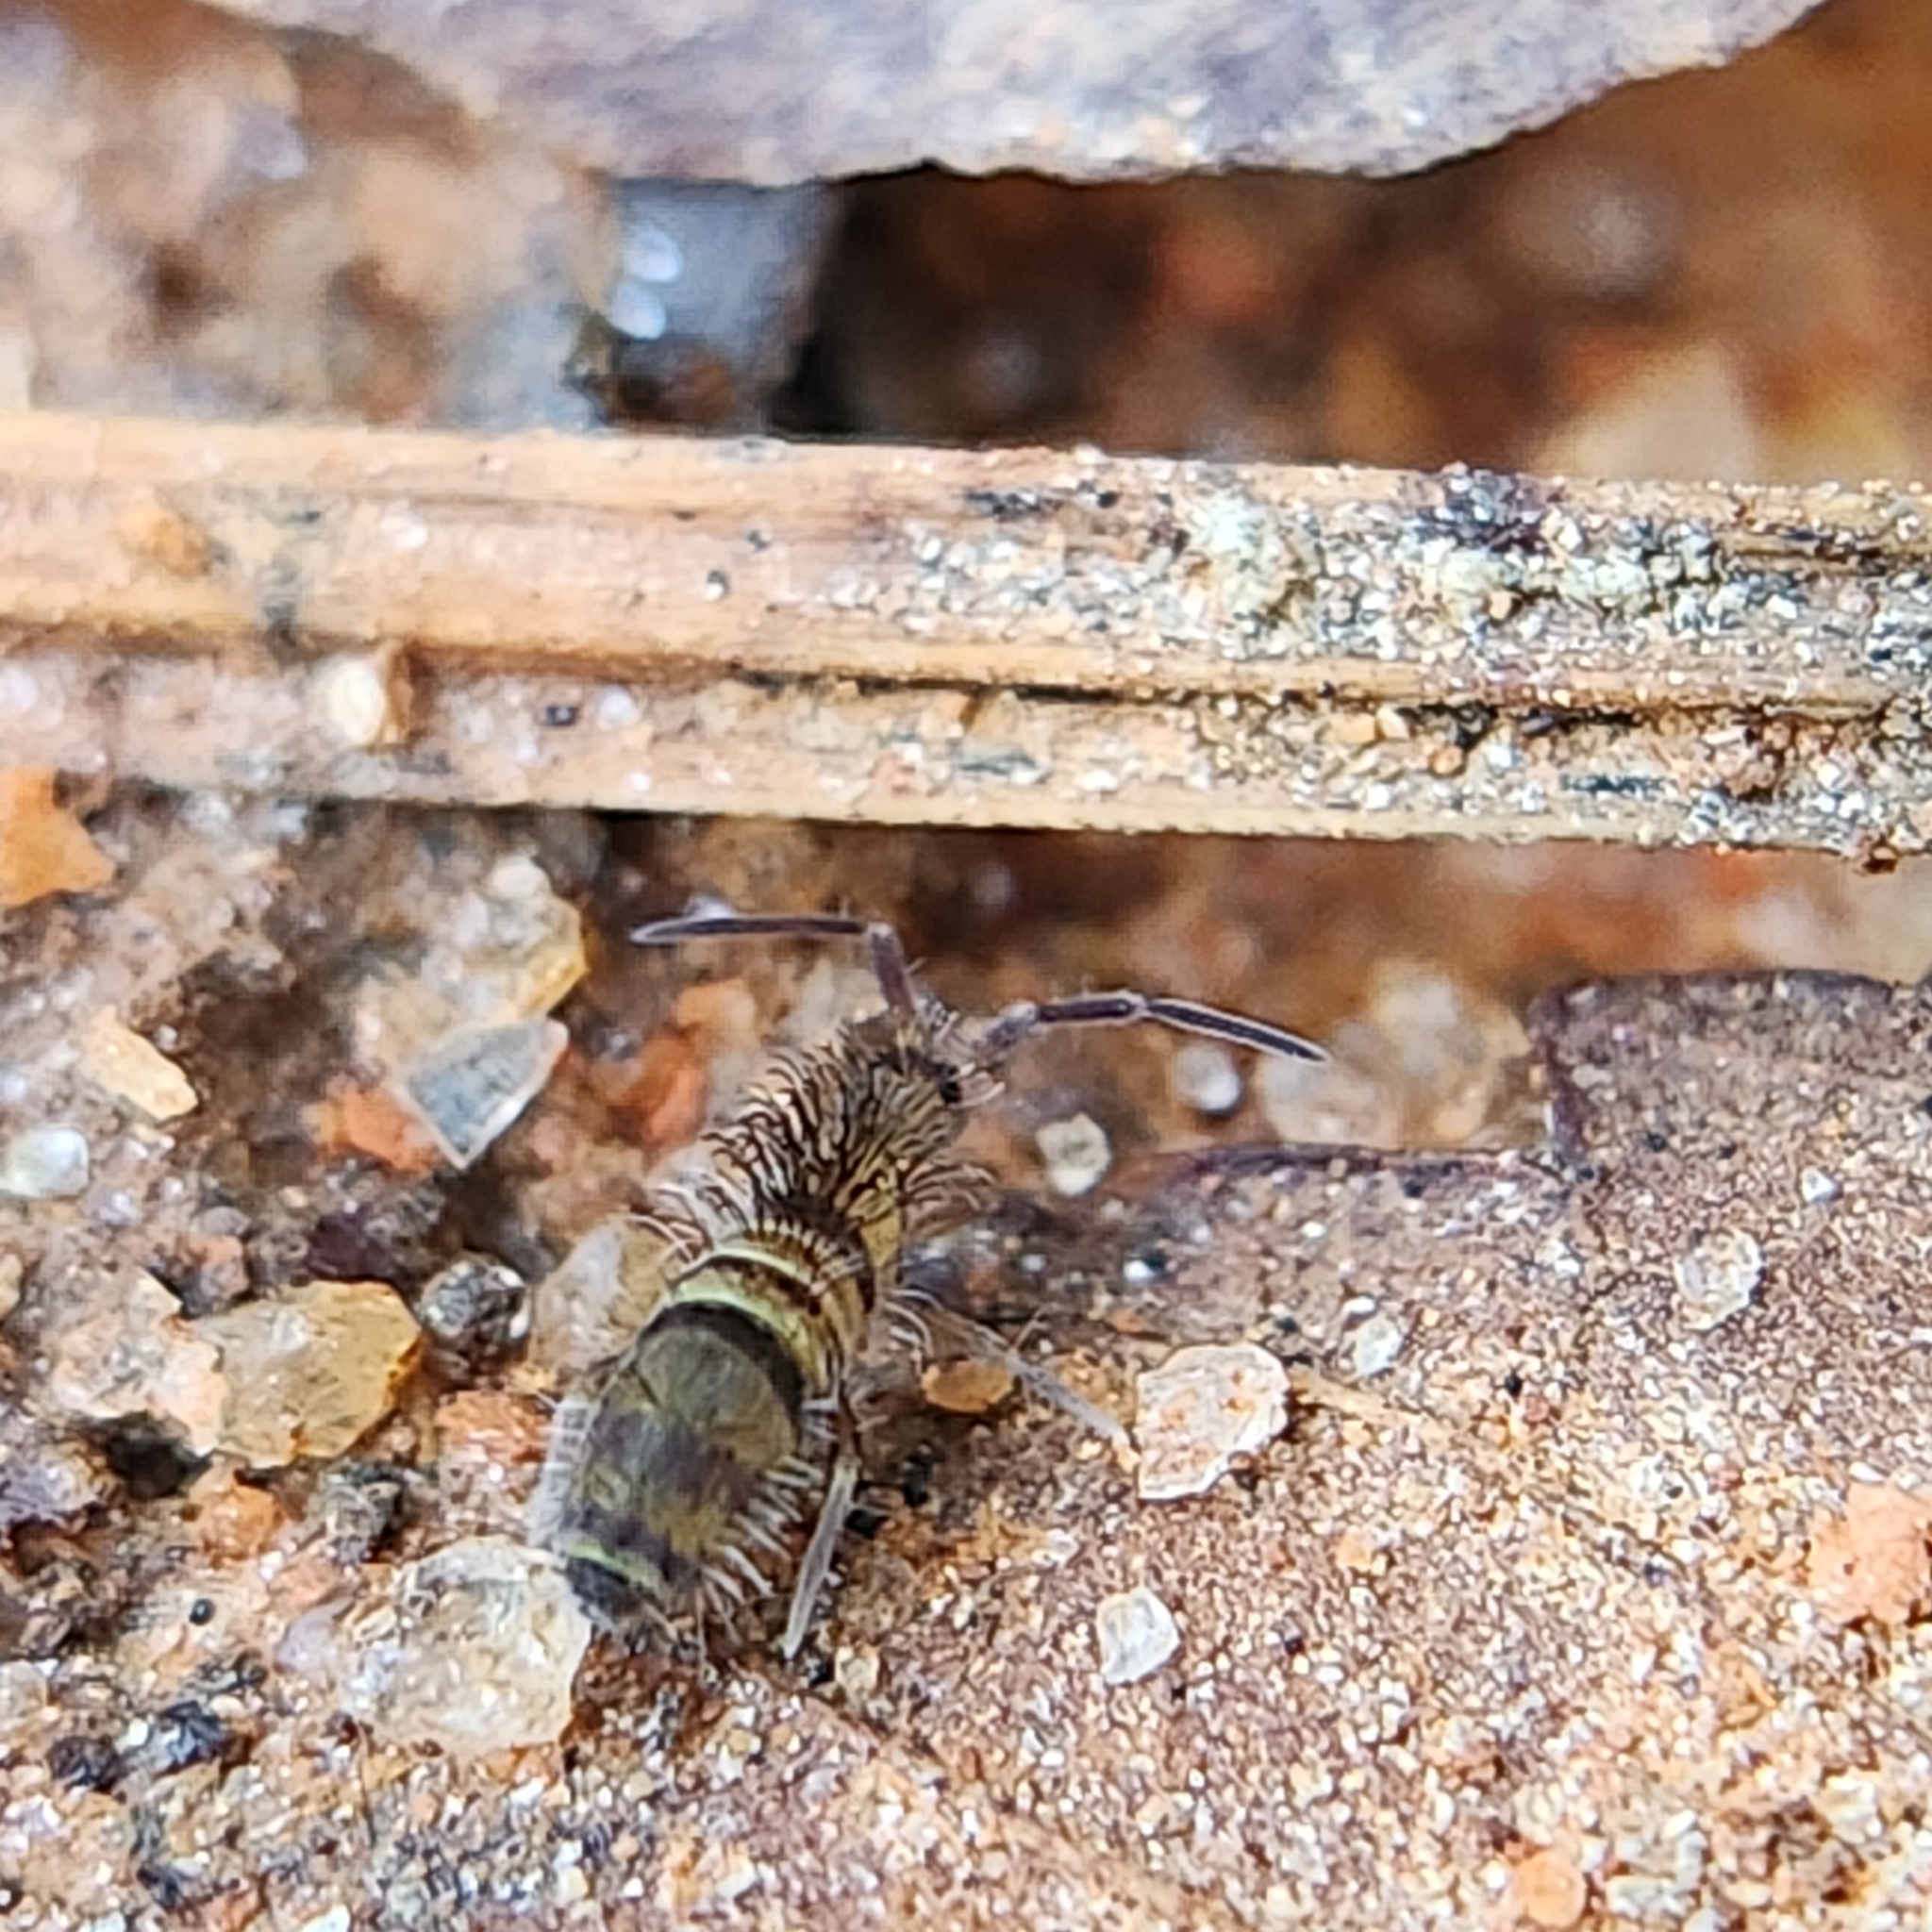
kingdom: Animalia
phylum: Arthropoda
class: Collembola
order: Entomobryomorpha
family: Entomobryidae
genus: Homidia
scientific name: Homidia sauteri
